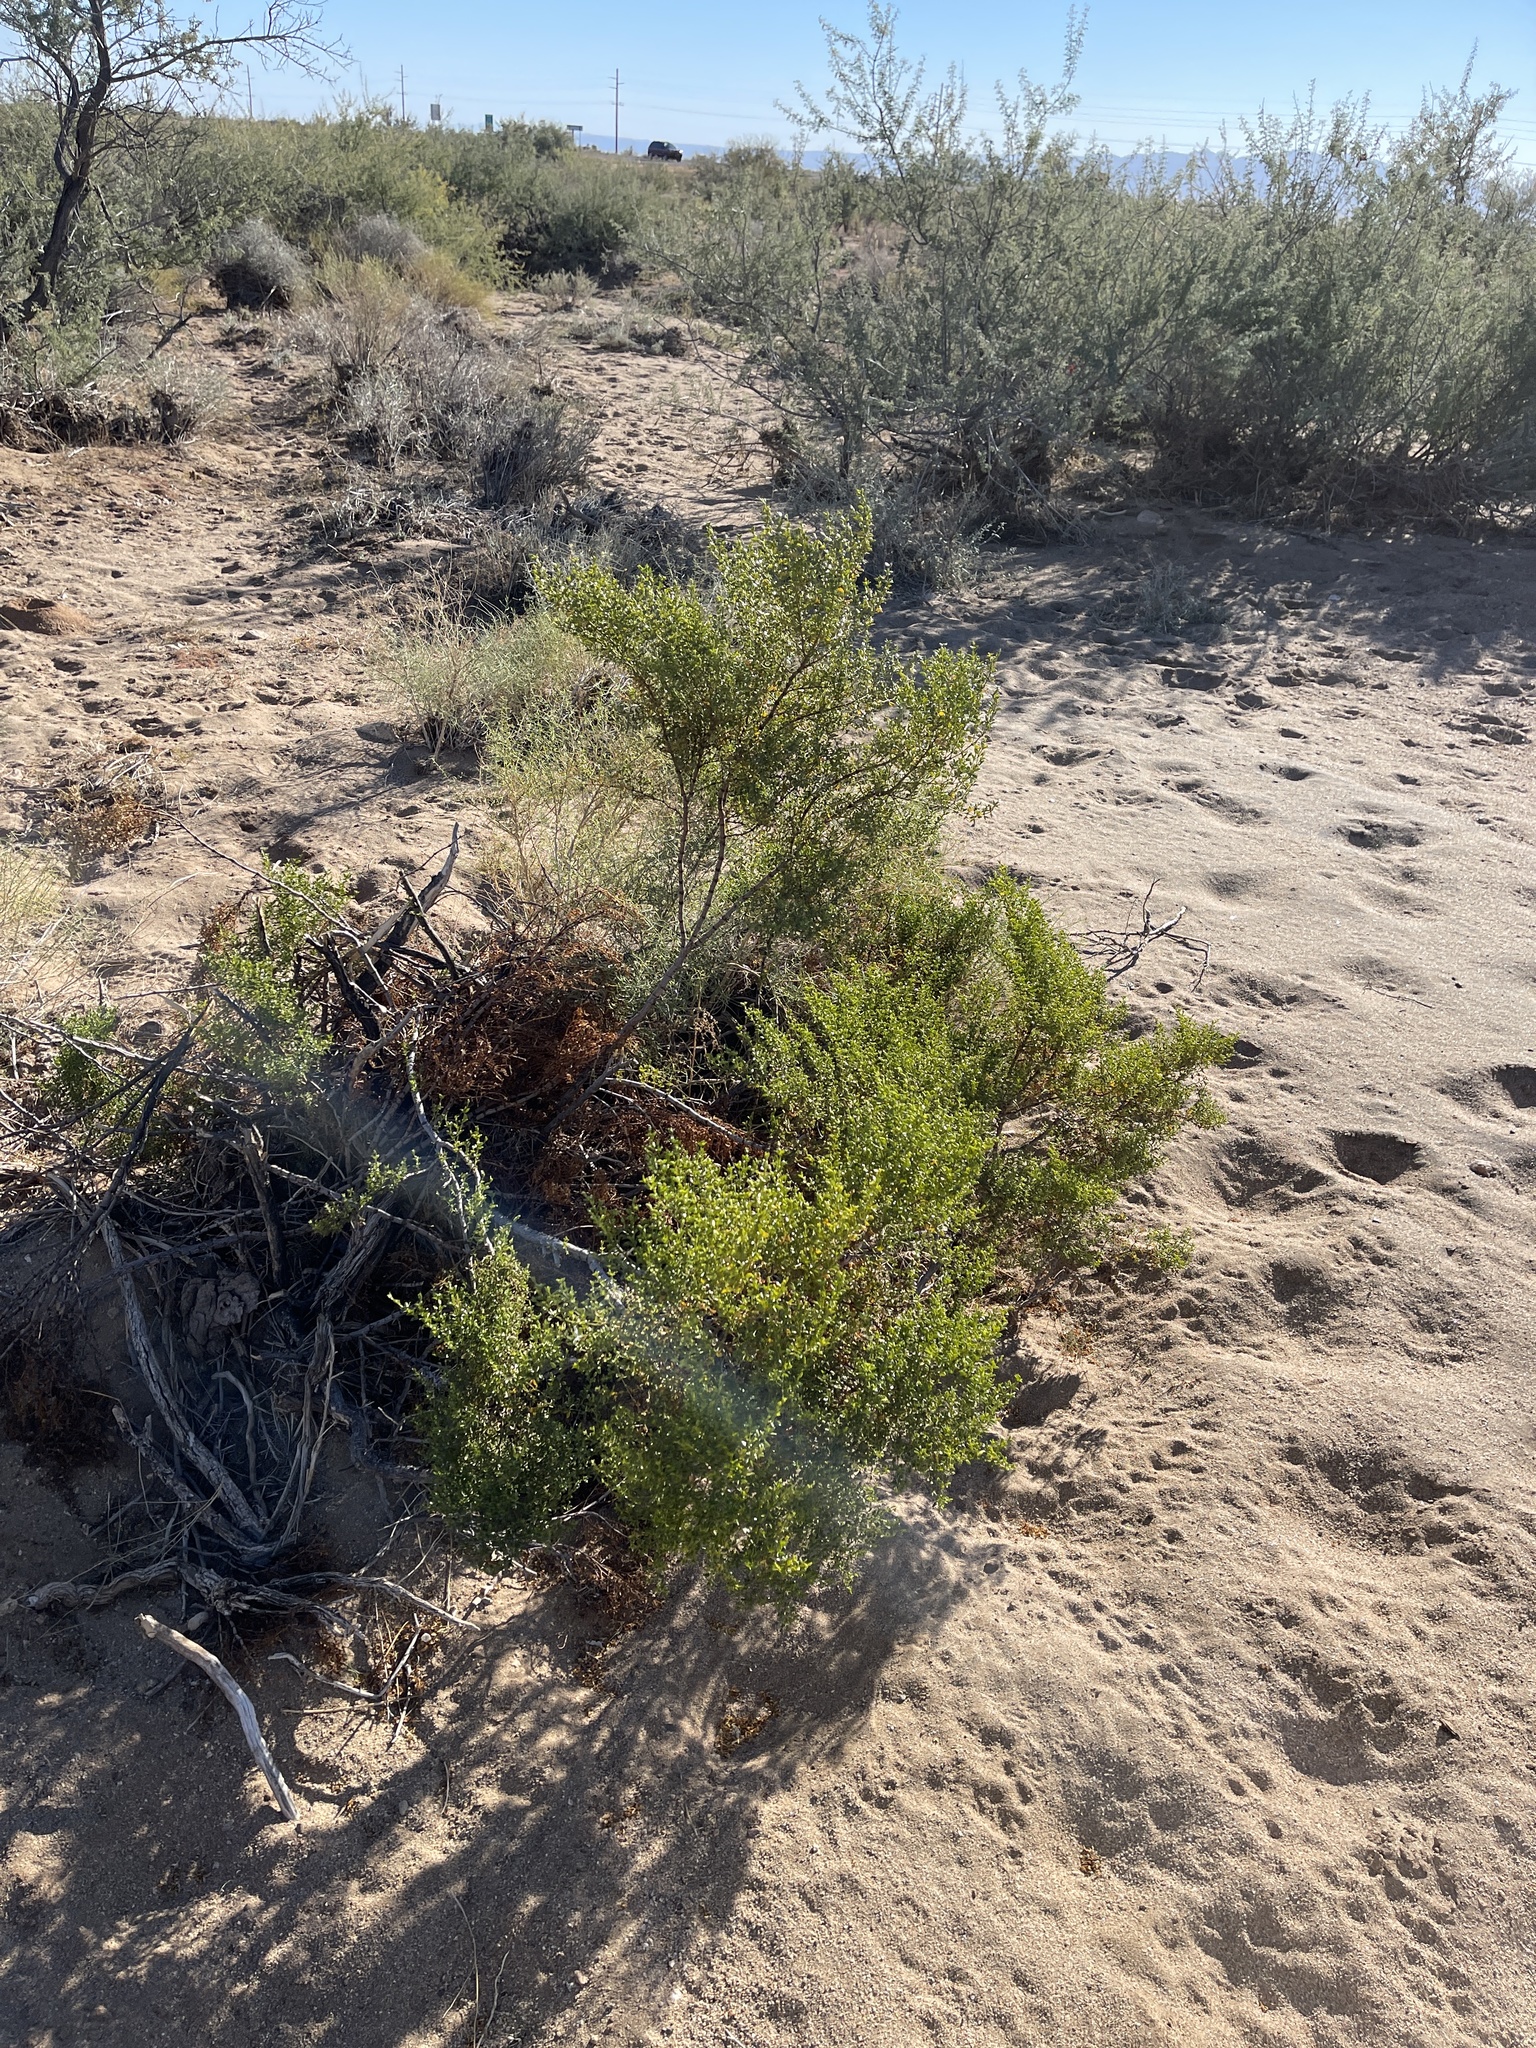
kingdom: Plantae
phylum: Tracheophyta
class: Magnoliopsida
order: Zygophyllales
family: Zygophyllaceae
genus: Larrea
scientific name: Larrea tridentata
